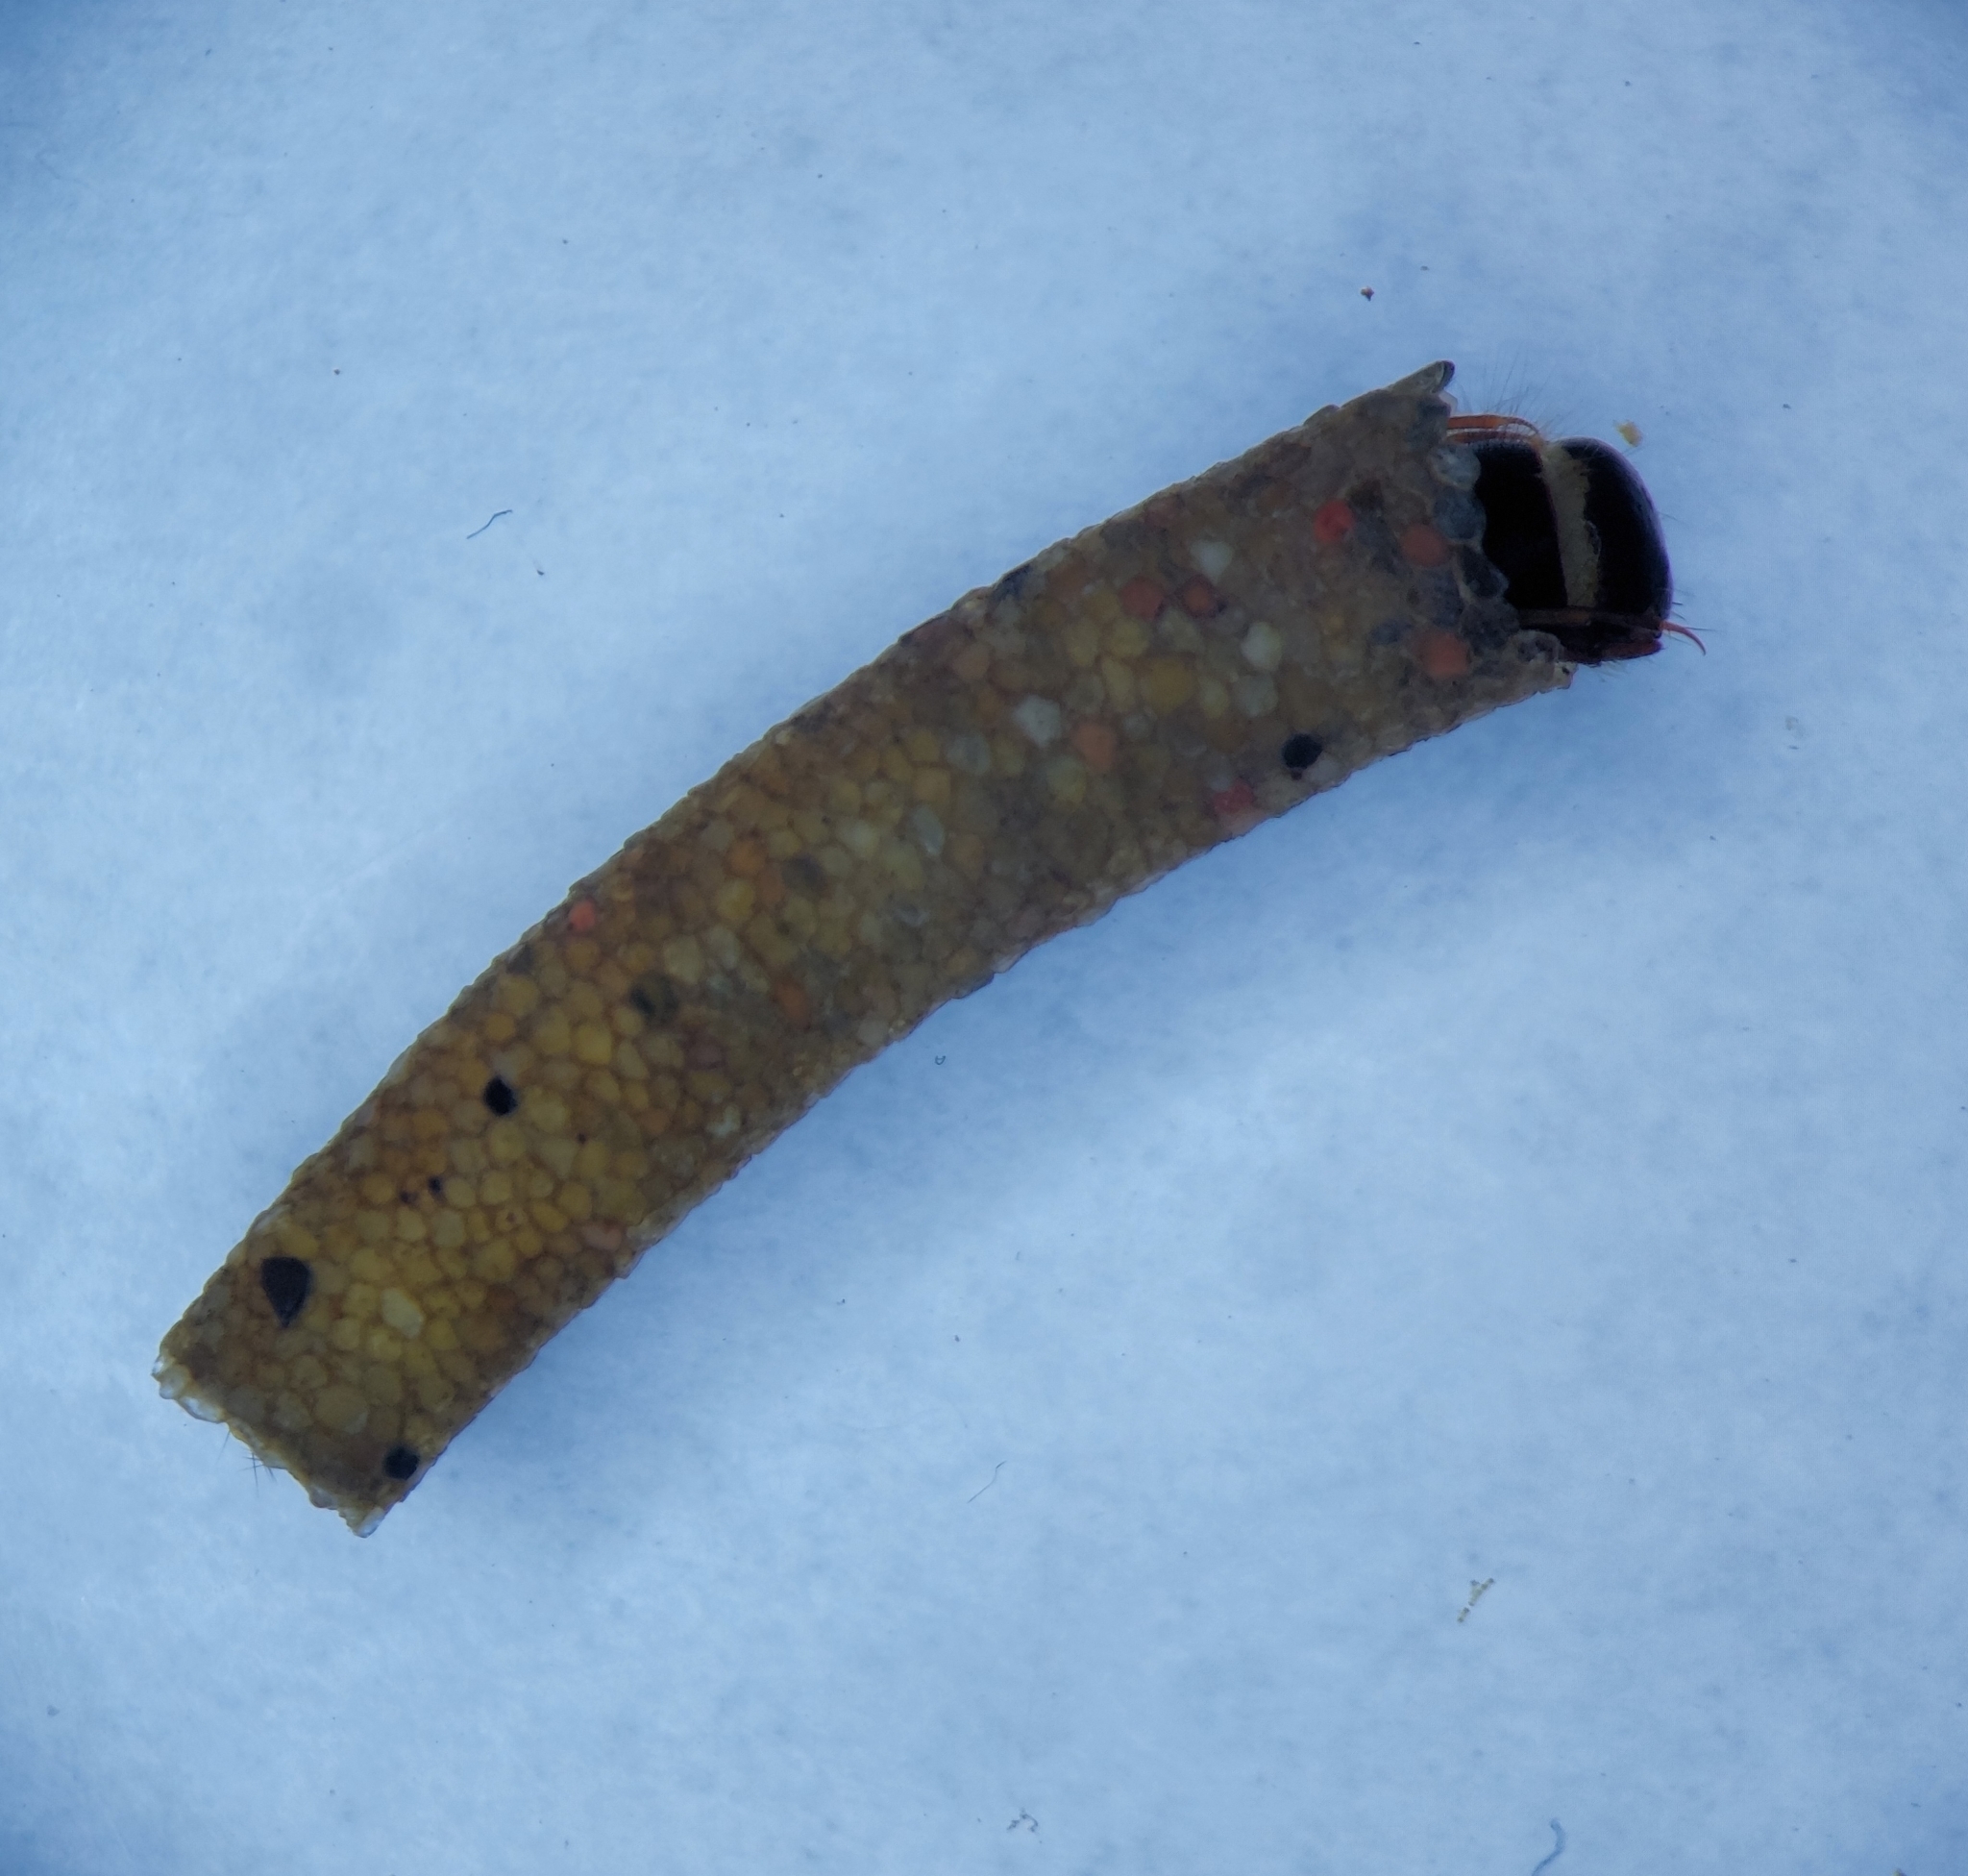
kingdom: Animalia
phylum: Arthropoda
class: Insecta
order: Trichoptera
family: Sericostomatidae
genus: Sericostoma
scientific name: Sericostoma personatum
